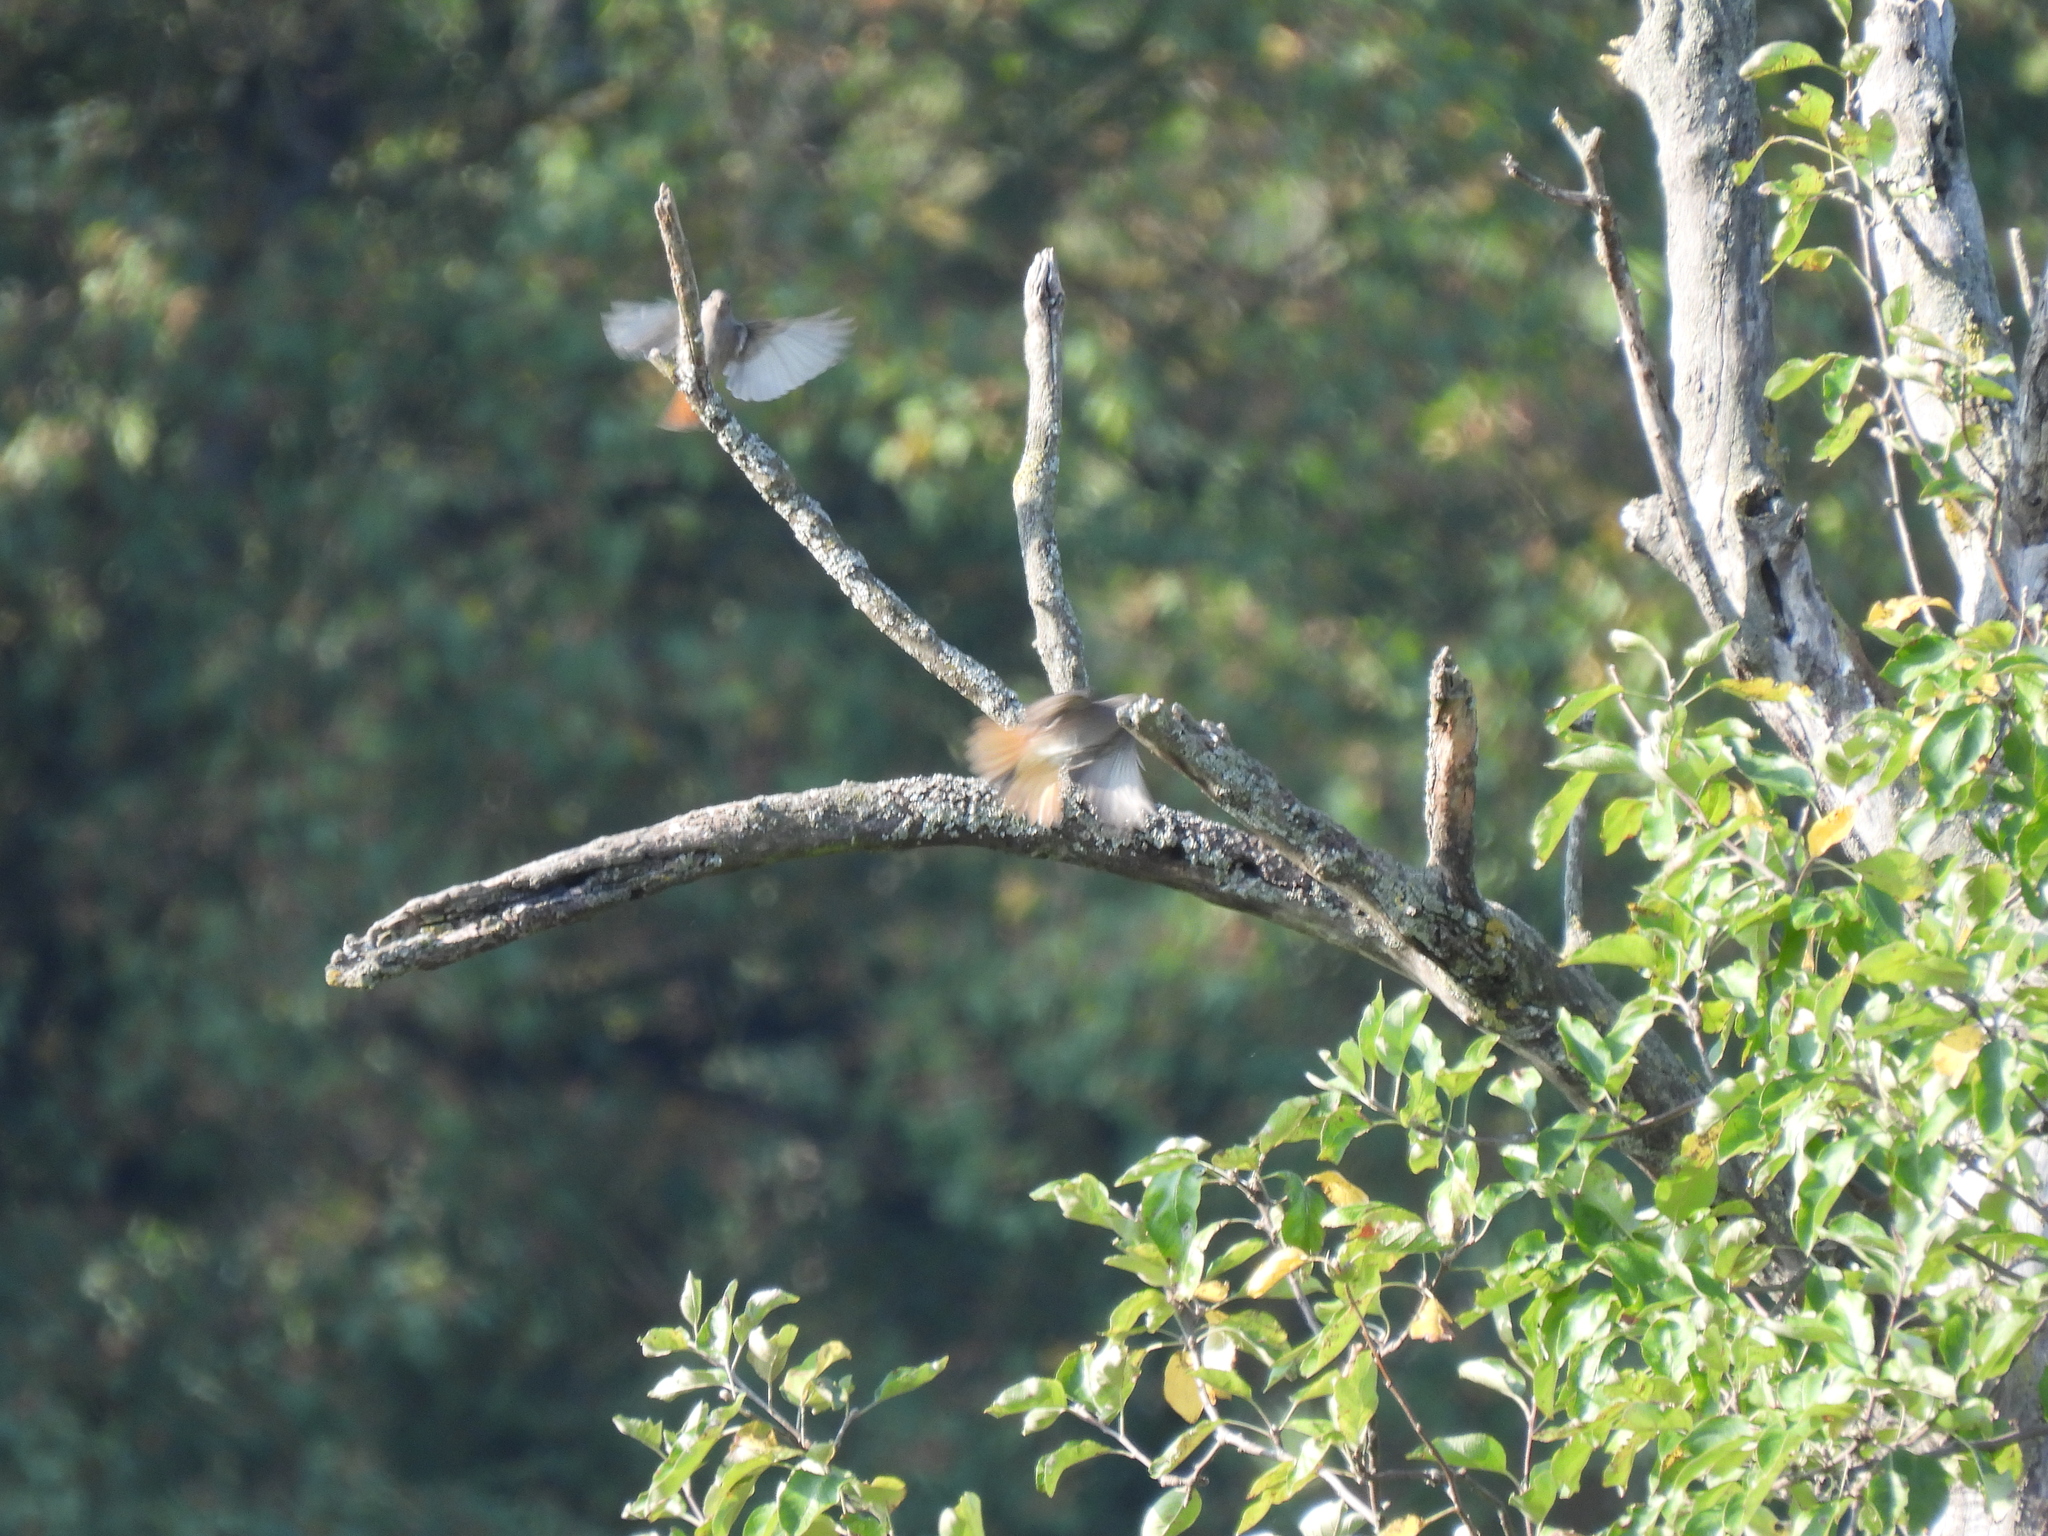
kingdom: Animalia
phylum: Chordata
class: Aves
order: Passeriformes
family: Muscicapidae
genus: Phoenicurus
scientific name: Phoenicurus ochruros
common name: Black redstart
